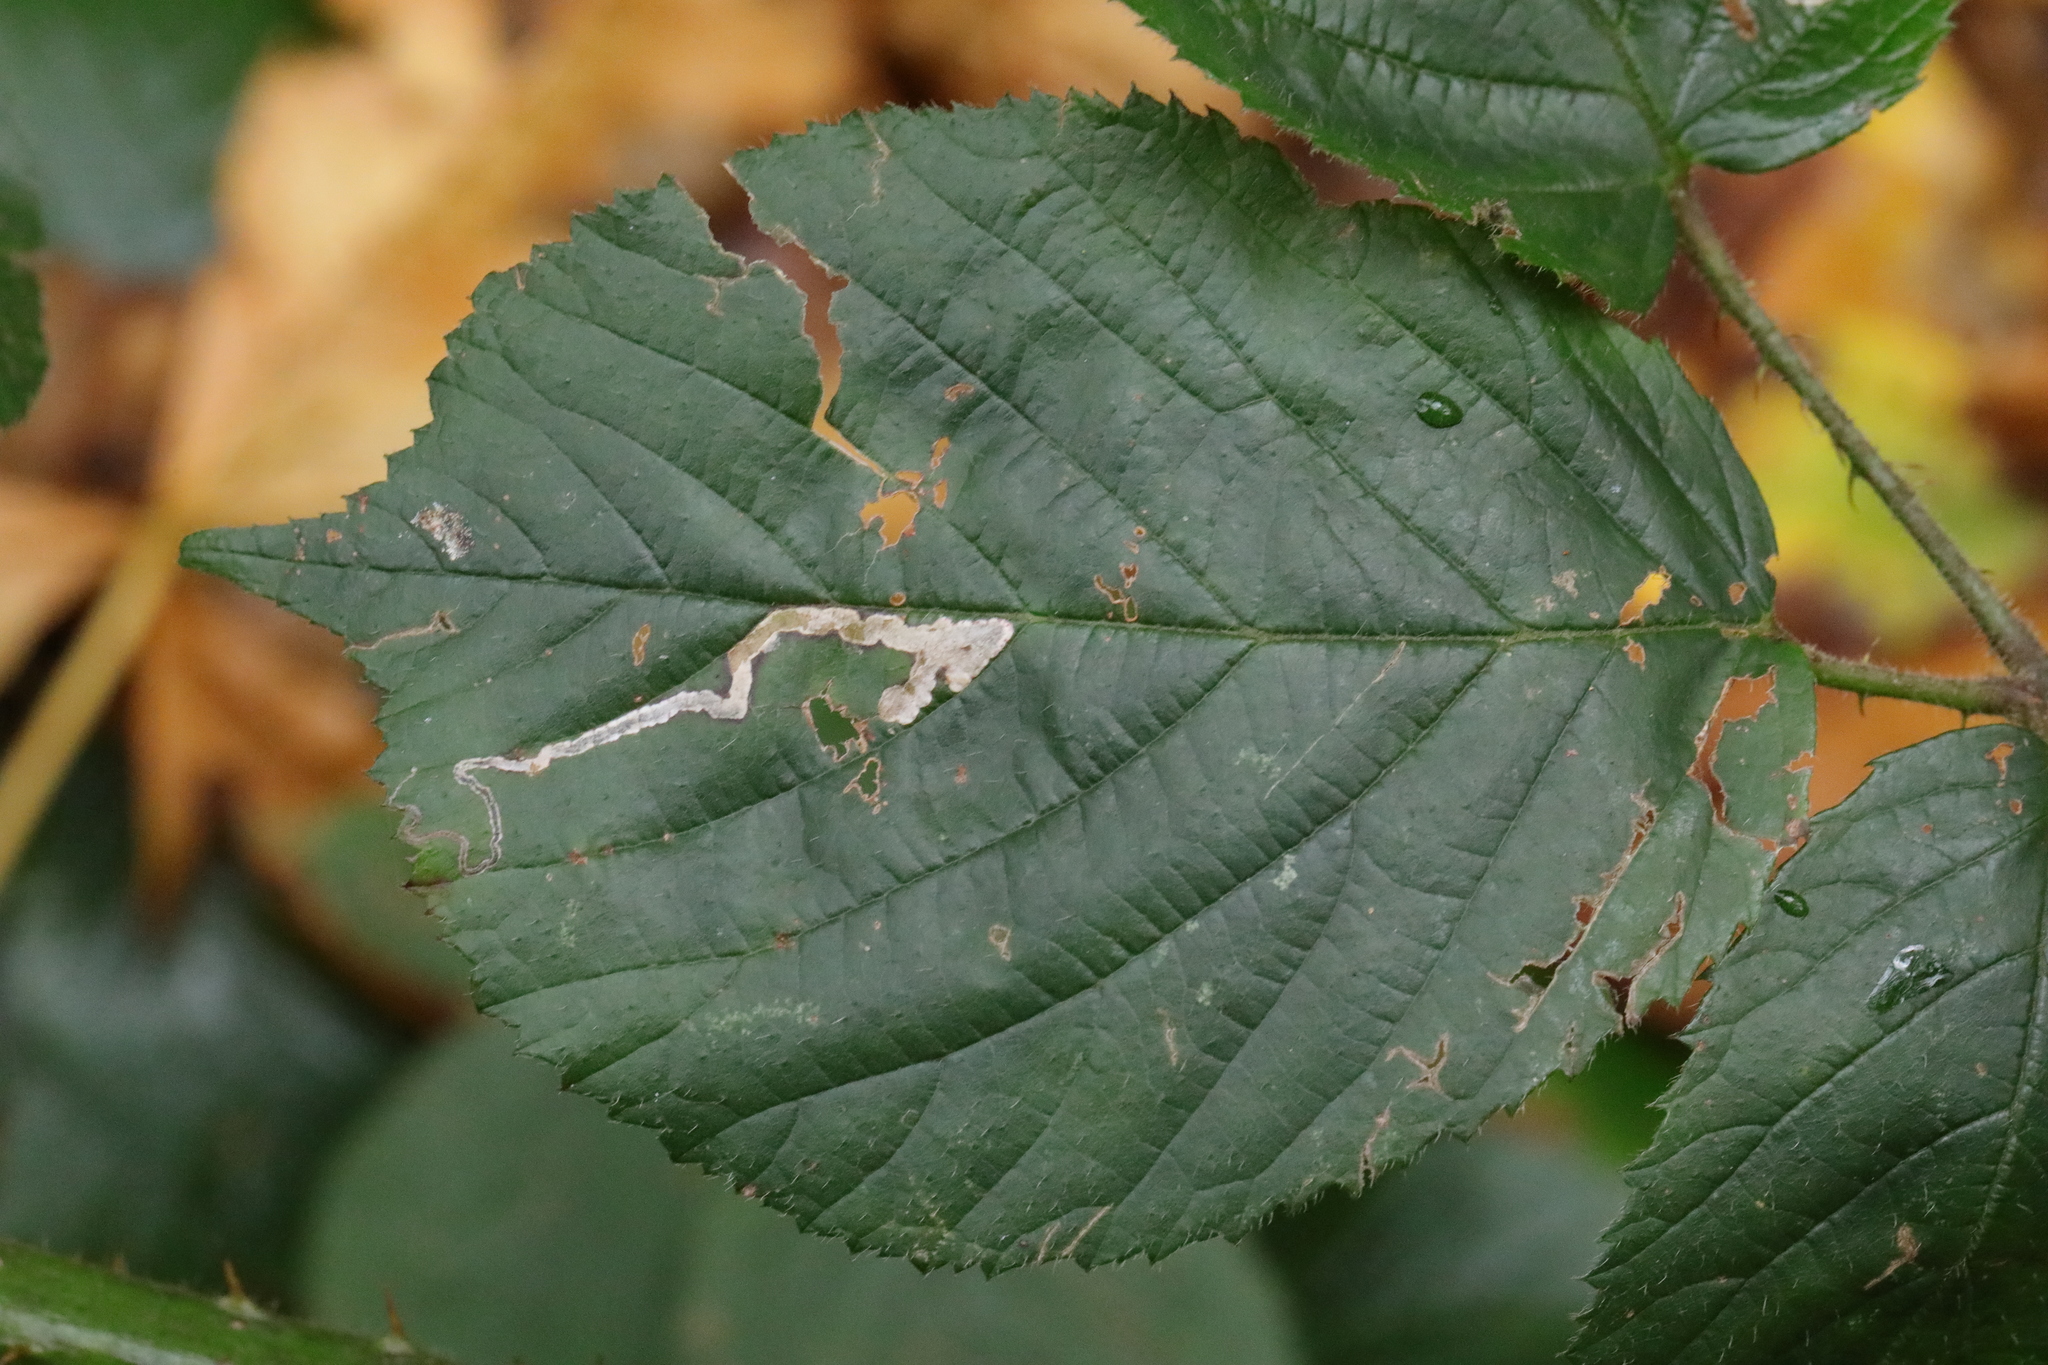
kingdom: Animalia
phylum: Arthropoda
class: Insecta
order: Lepidoptera
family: Nepticulidae
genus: Stigmella
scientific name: Stigmella aurella
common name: Golden pigmy
